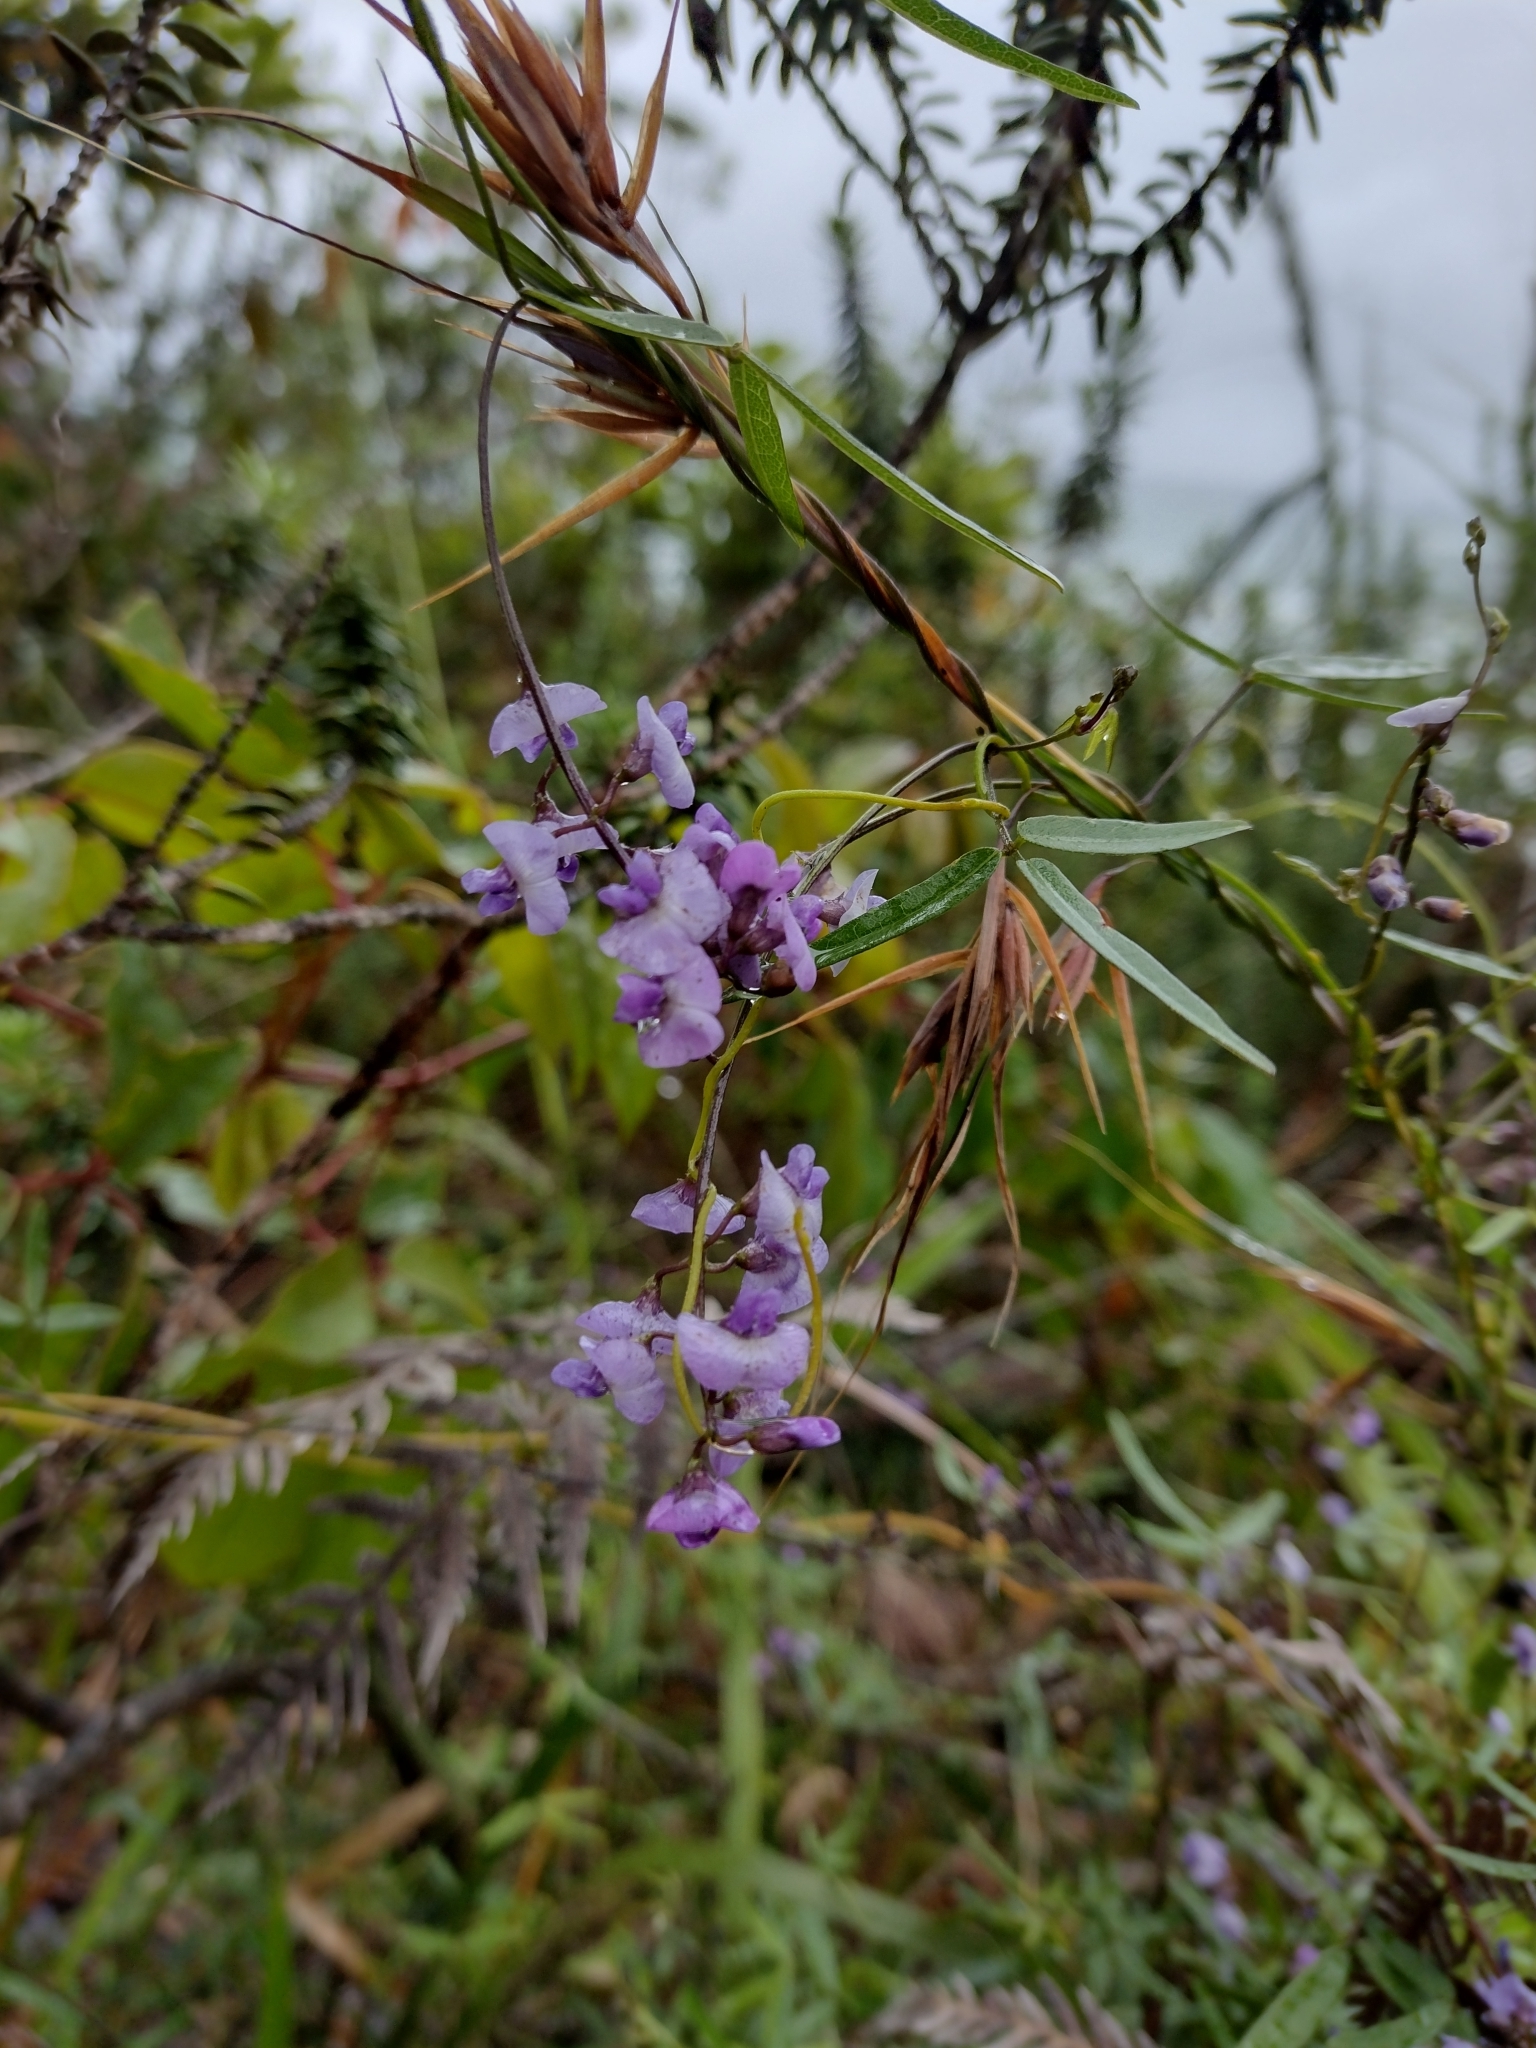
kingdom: Plantae
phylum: Tracheophyta
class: Magnoliopsida
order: Fabales
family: Fabaceae
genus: Glycine
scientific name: Glycine clandestina
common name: Twining glycine
